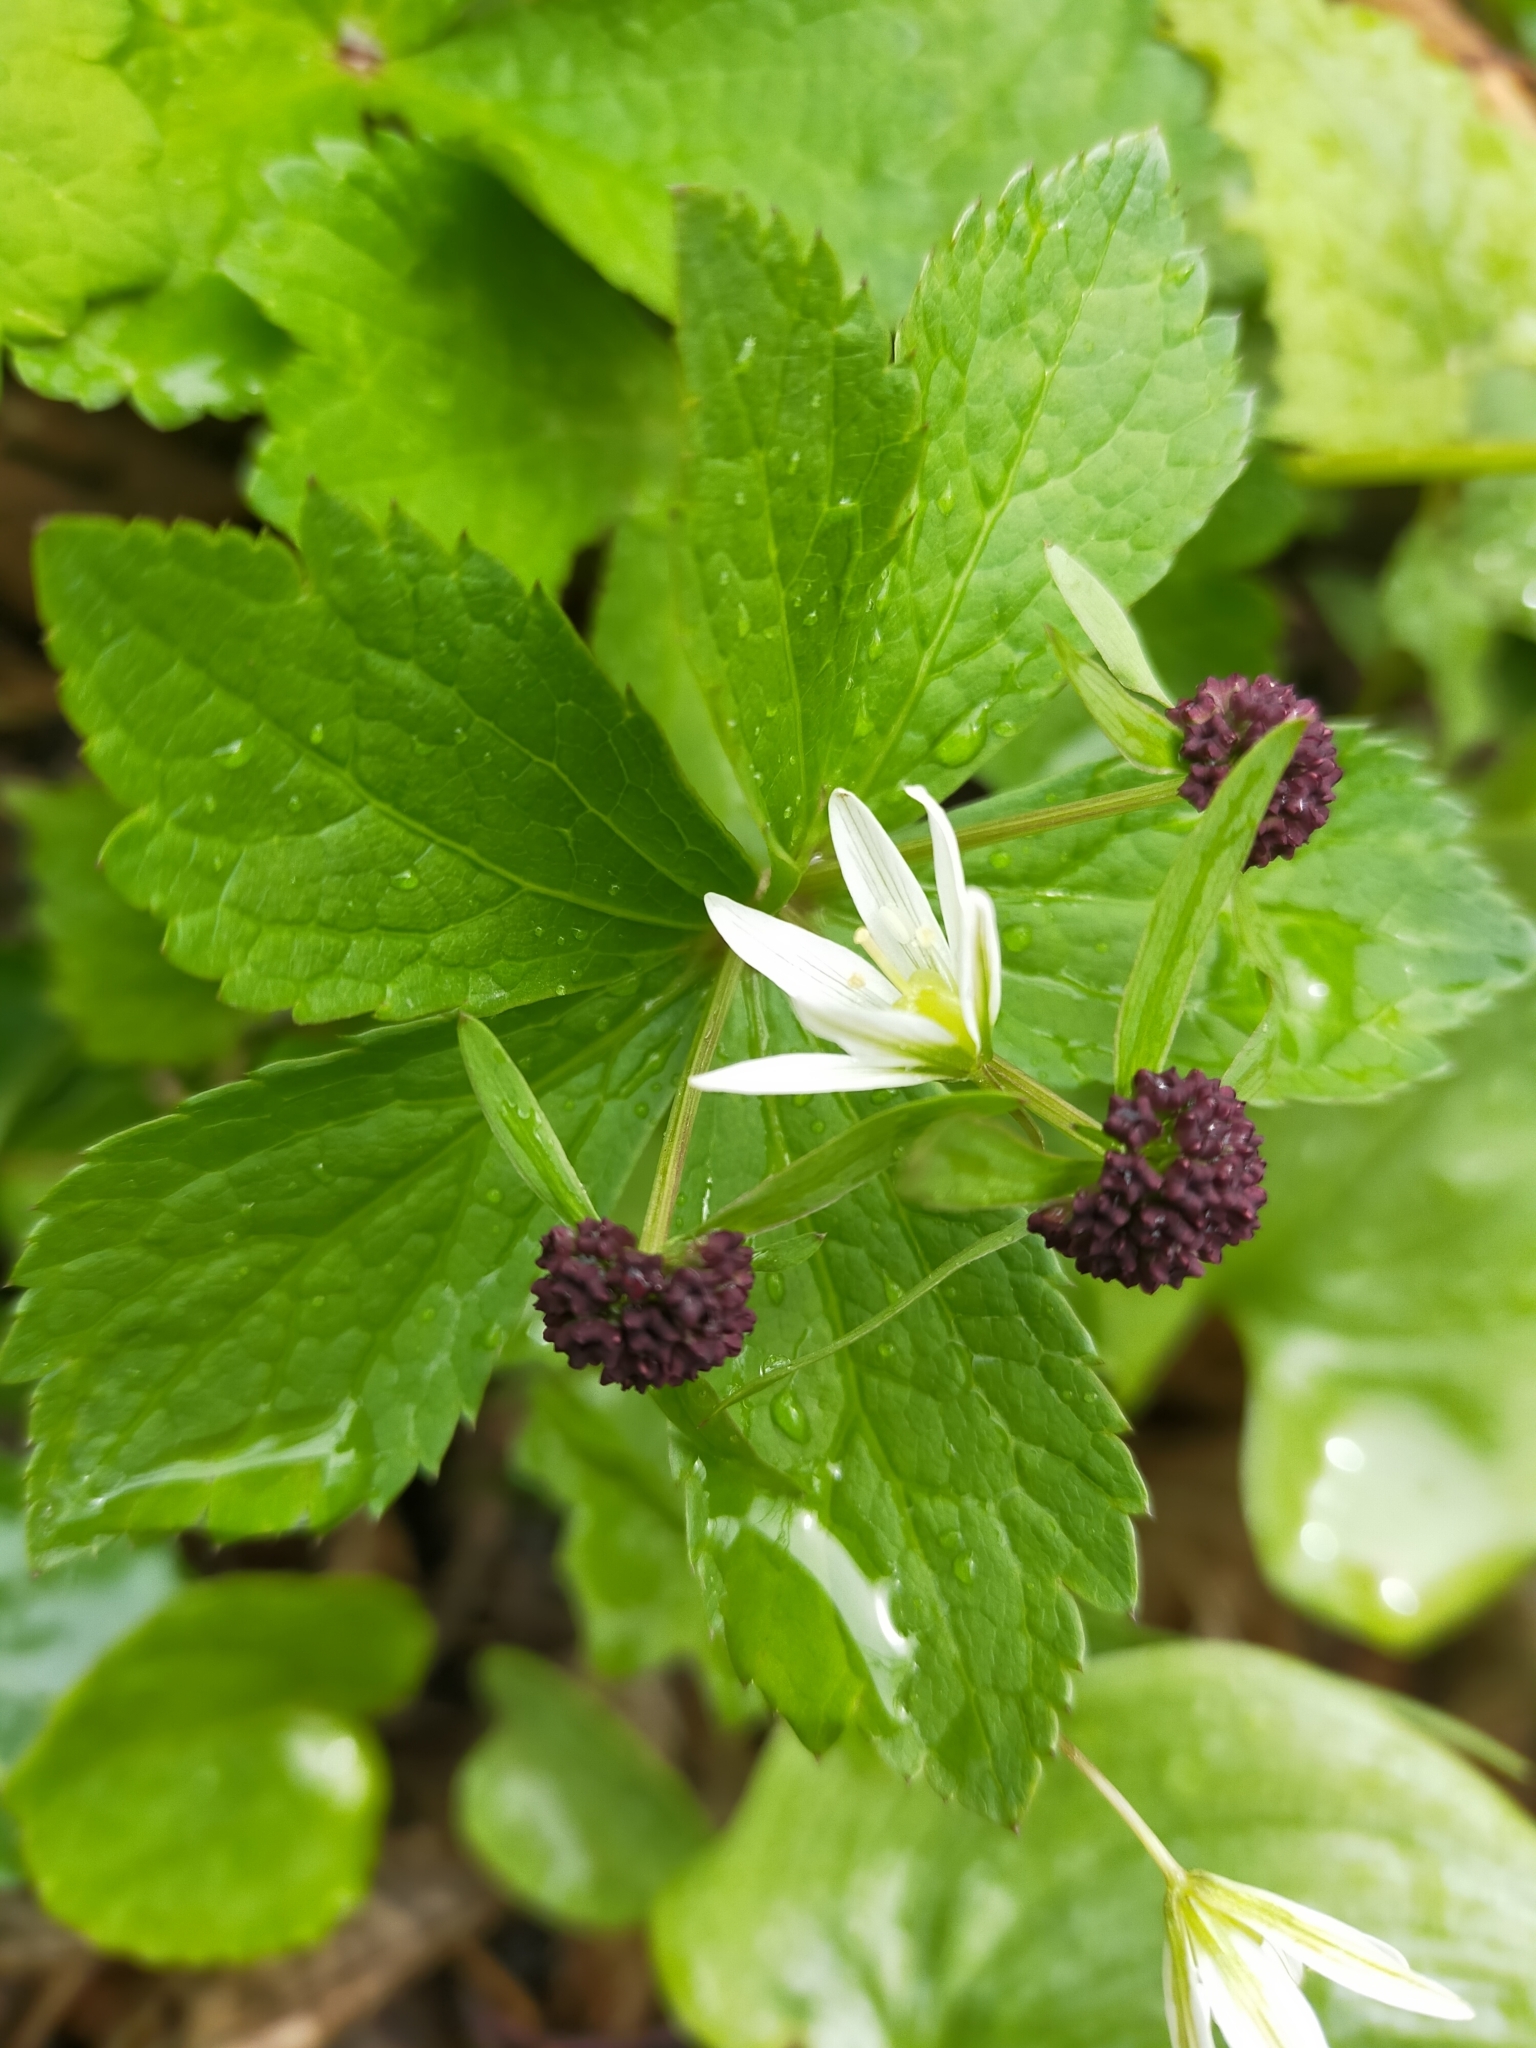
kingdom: Plantae
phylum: Tracheophyta
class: Magnoliopsida
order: Apiales
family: Apiaceae
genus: Sanicula
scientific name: Sanicula rubriflora
